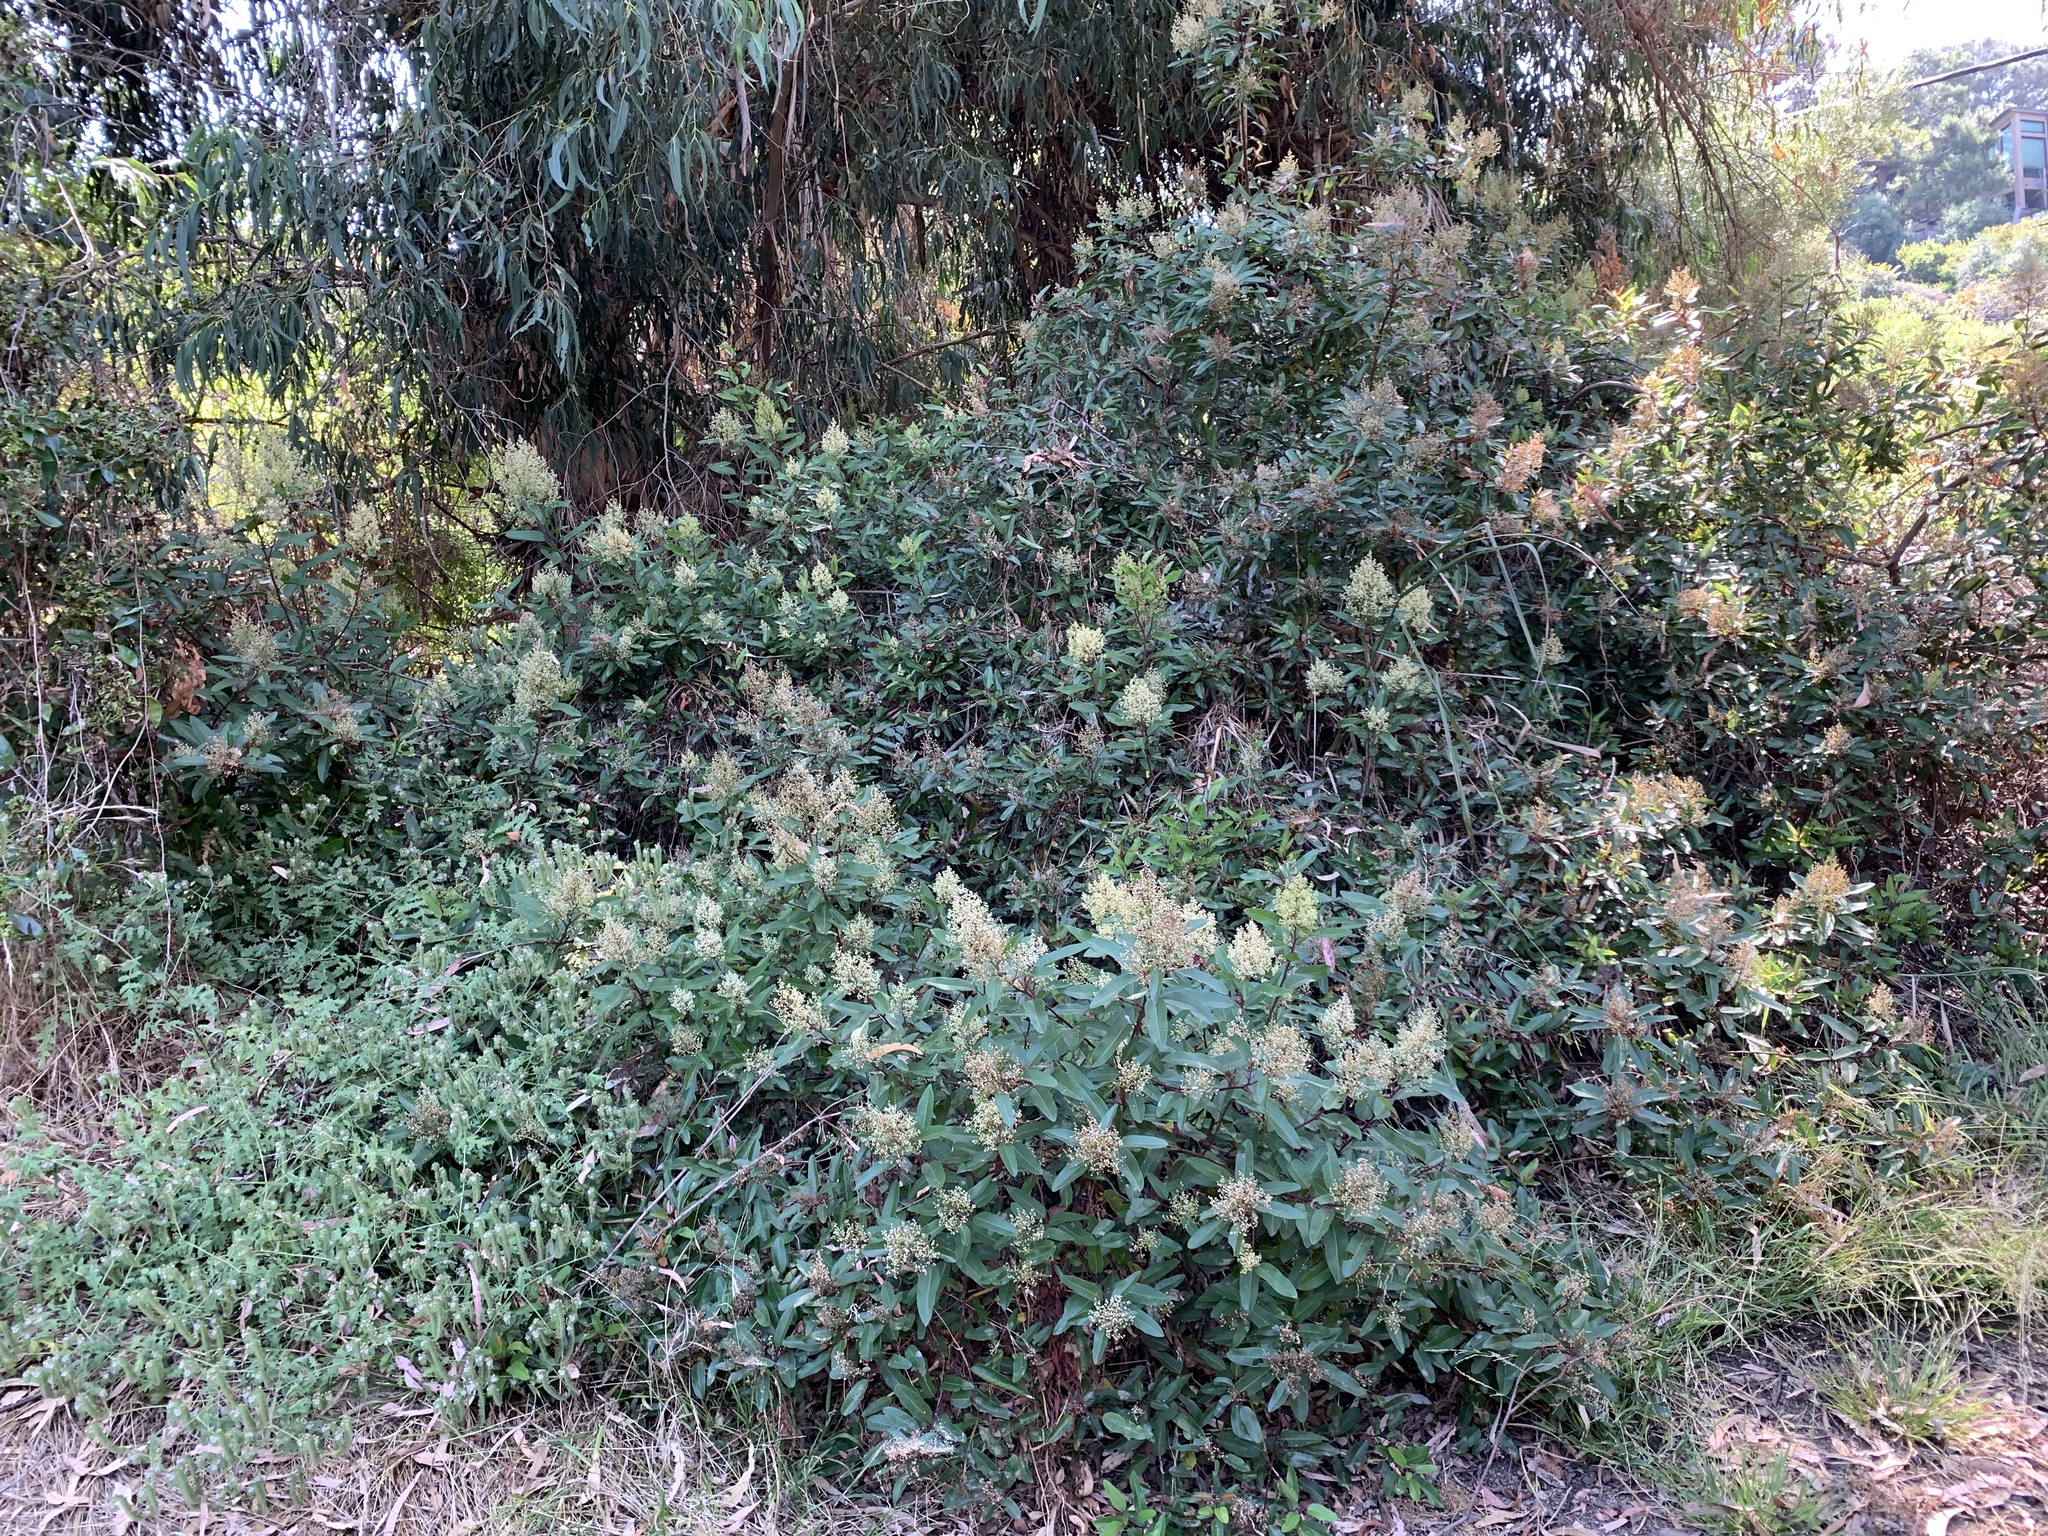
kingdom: Plantae
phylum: Tracheophyta
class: Magnoliopsida
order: Sapindales
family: Anacardiaceae
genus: Malosma
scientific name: Malosma laurina
